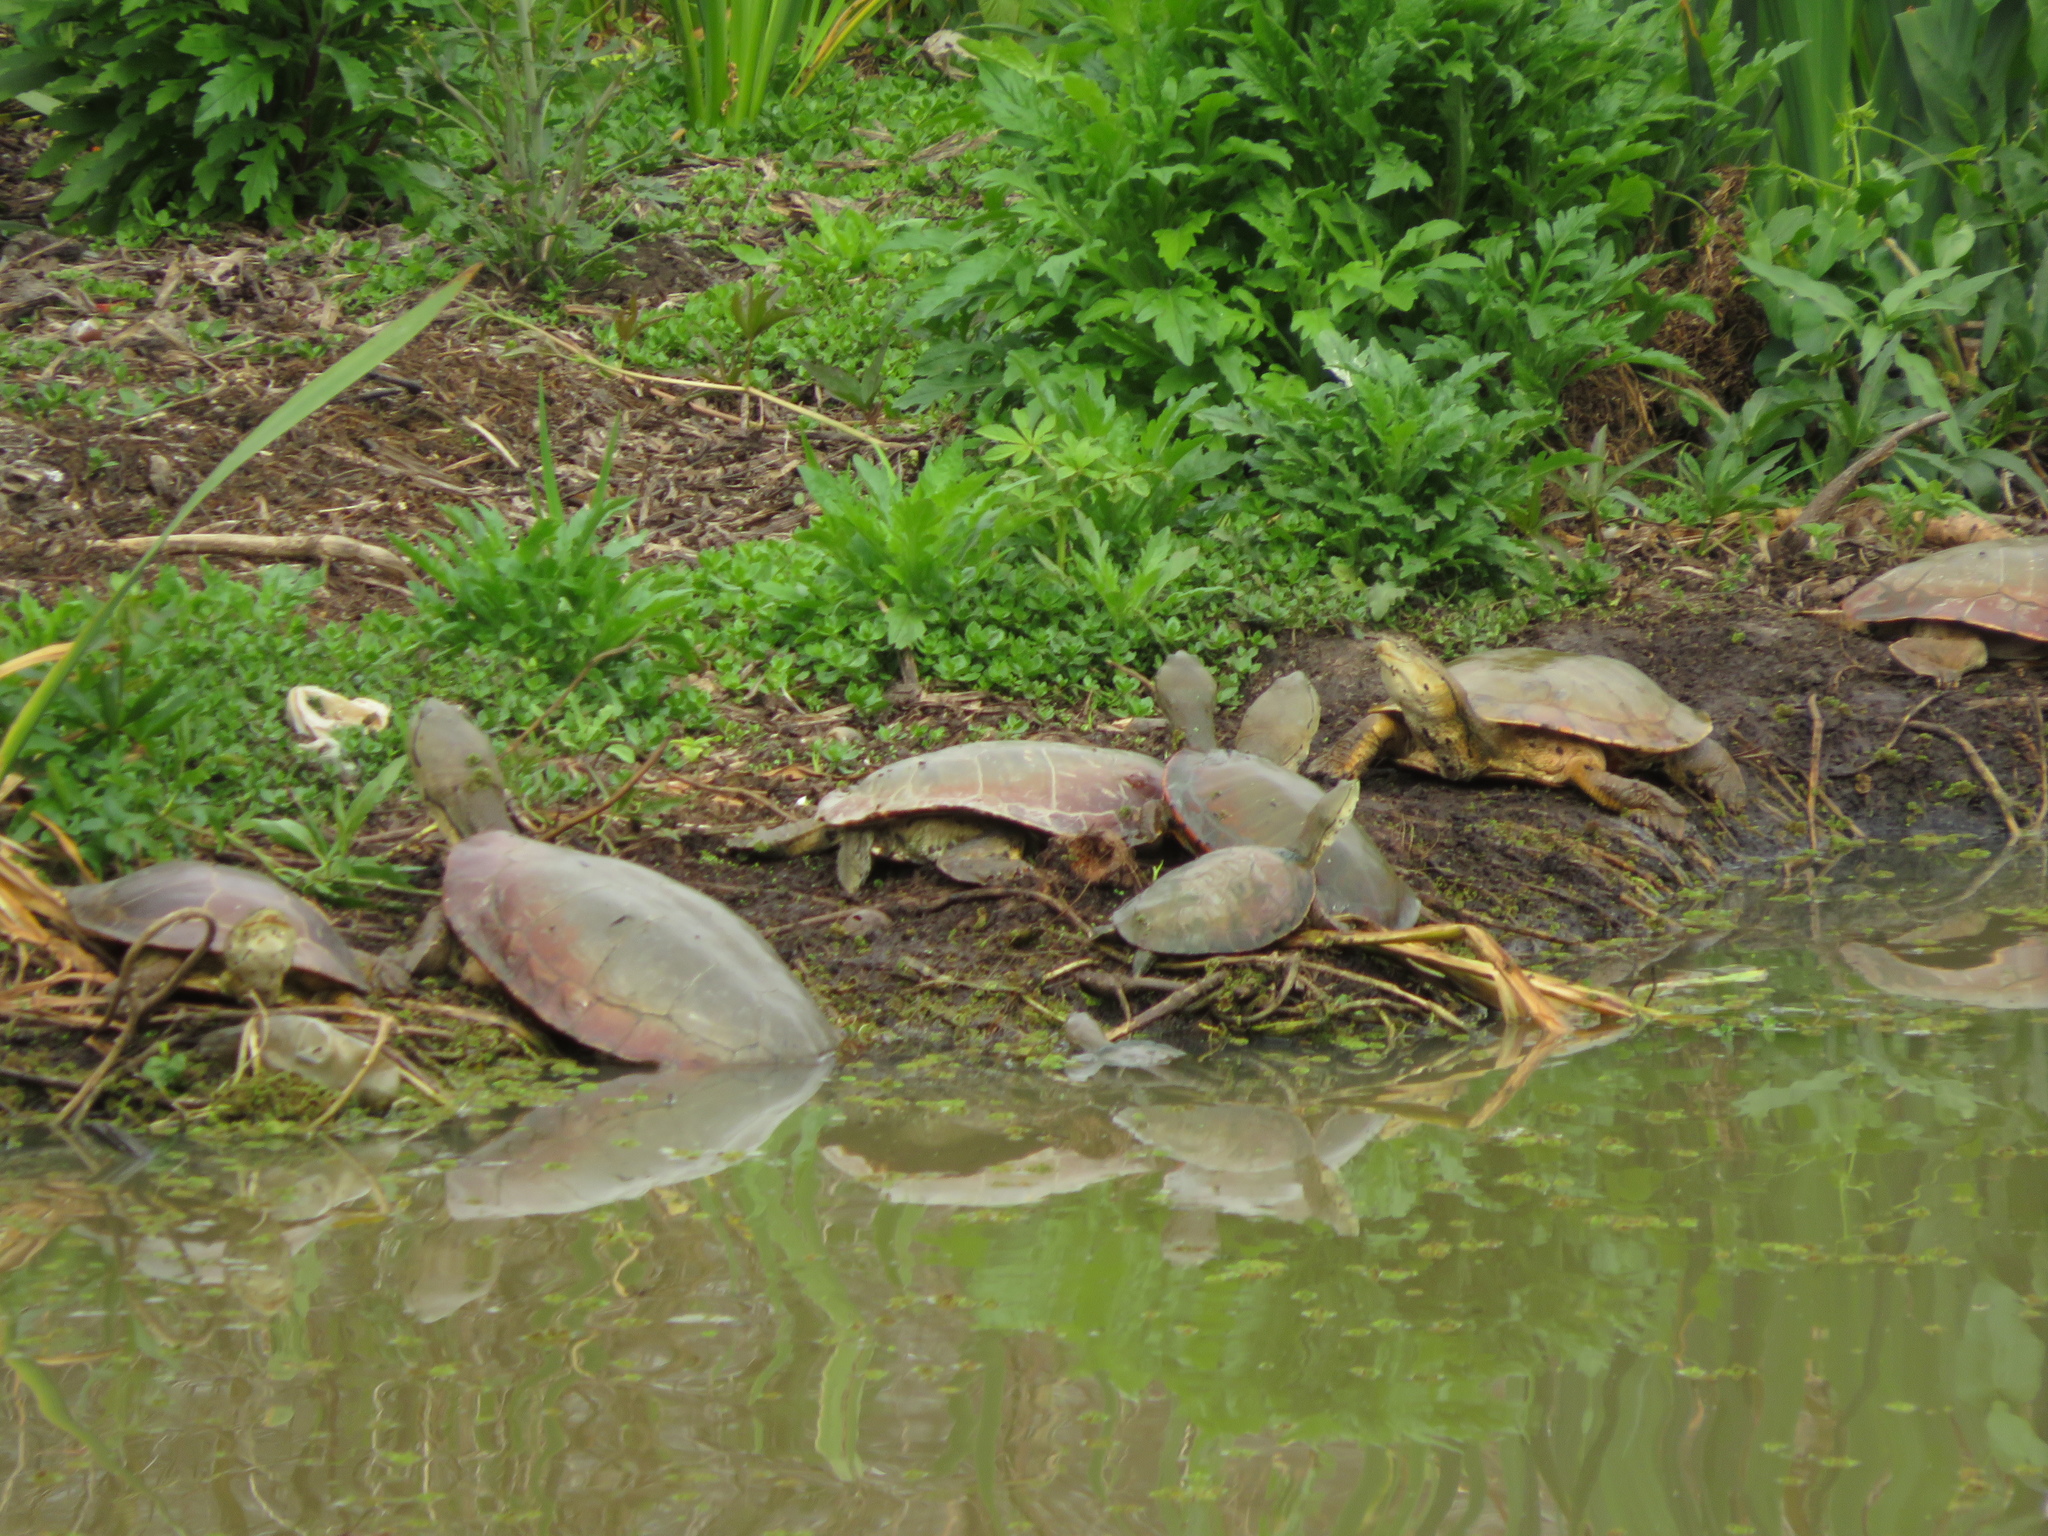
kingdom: Animalia
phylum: Chordata
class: Testudines
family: Chelidae
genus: Phrynops
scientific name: Phrynops hilarii
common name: Side-necked turtle of saint hillaire
